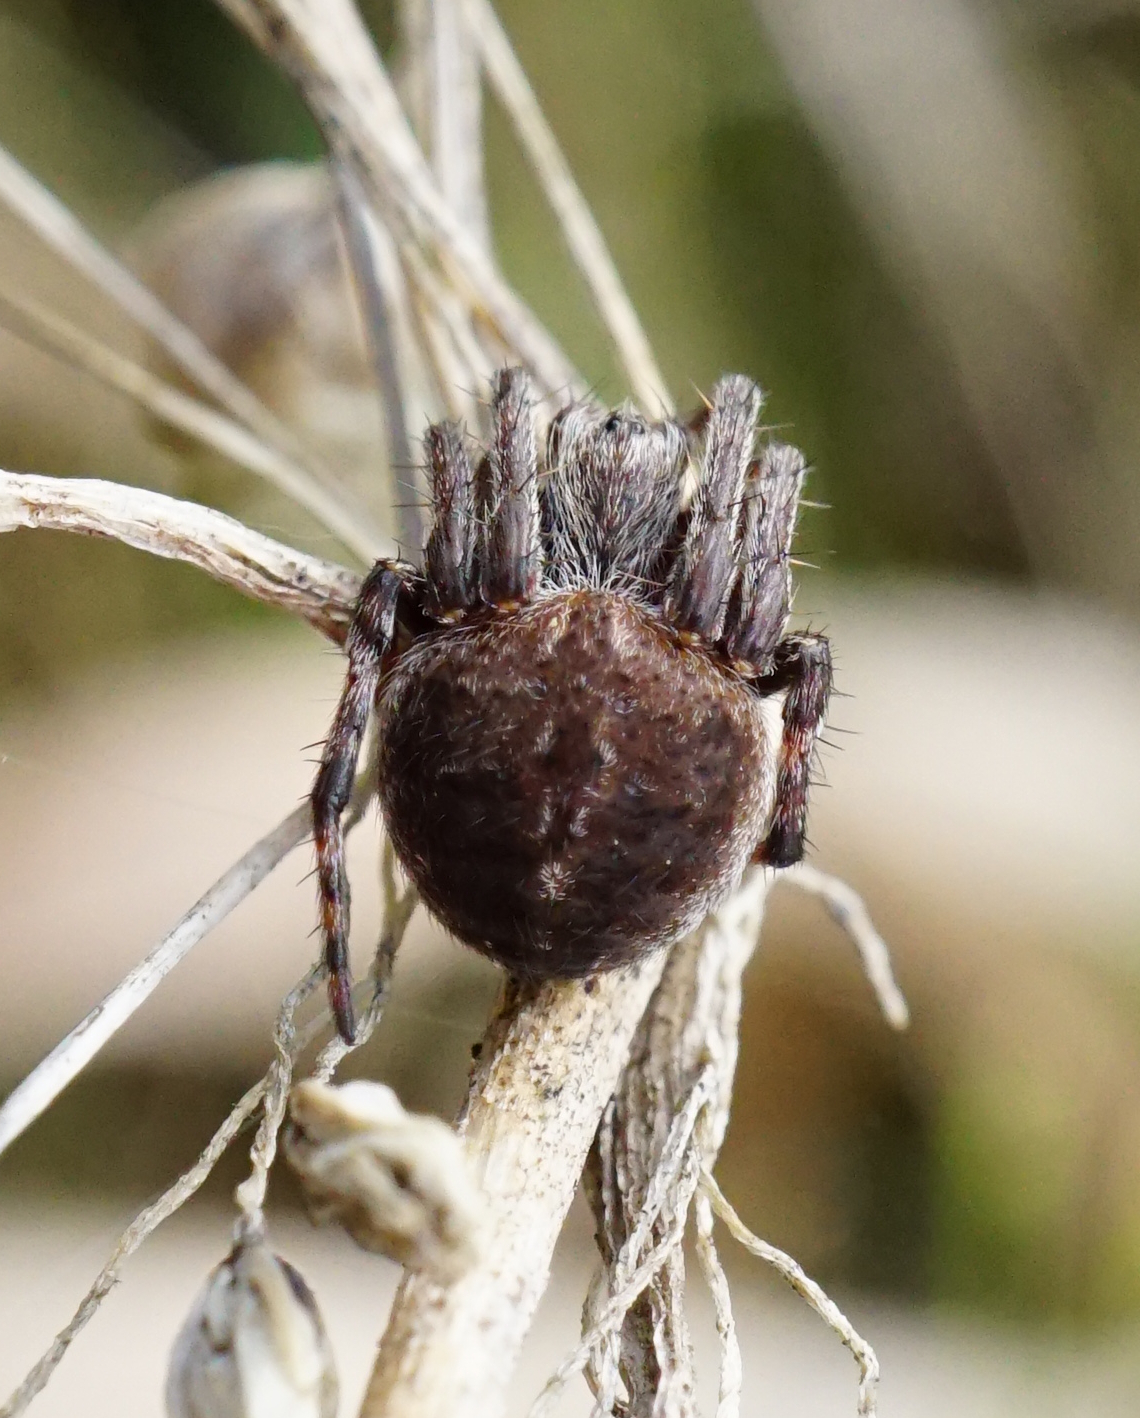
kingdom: Animalia
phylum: Arthropoda
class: Arachnida
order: Araneae
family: Araneidae
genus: Agalenatea
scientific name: Agalenatea redii
